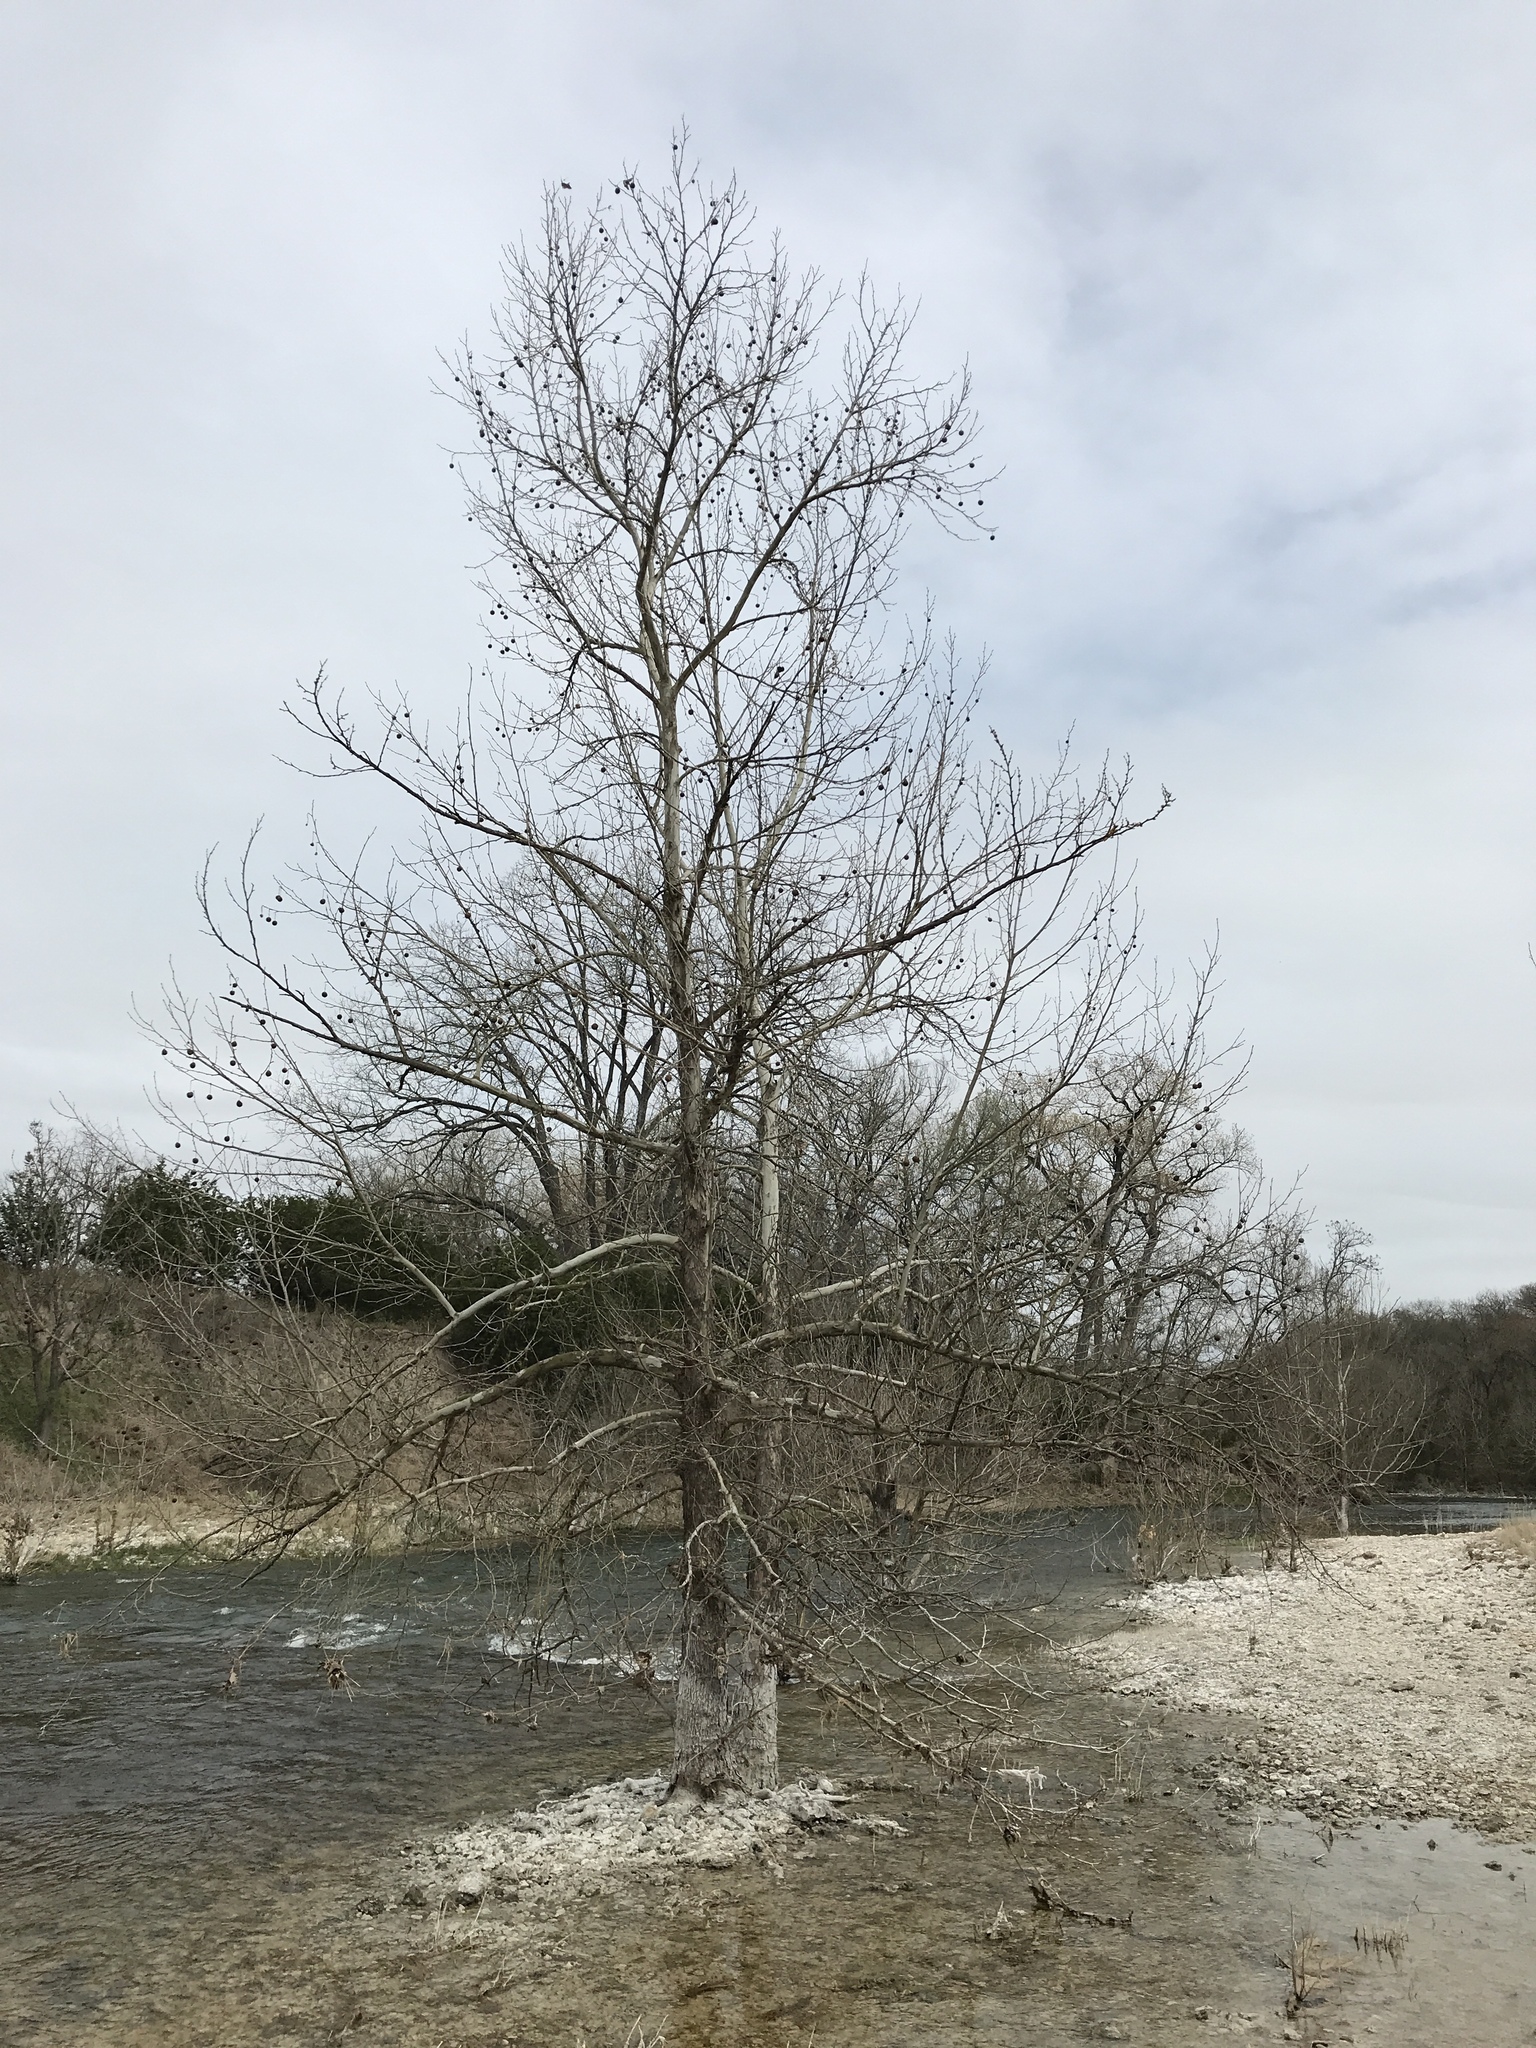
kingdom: Plantae
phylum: Tracheophyta
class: Magnoliopsida
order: Proteales
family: Platanaceae
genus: Platanus
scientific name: Platanus occidentalis
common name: American sycamore
